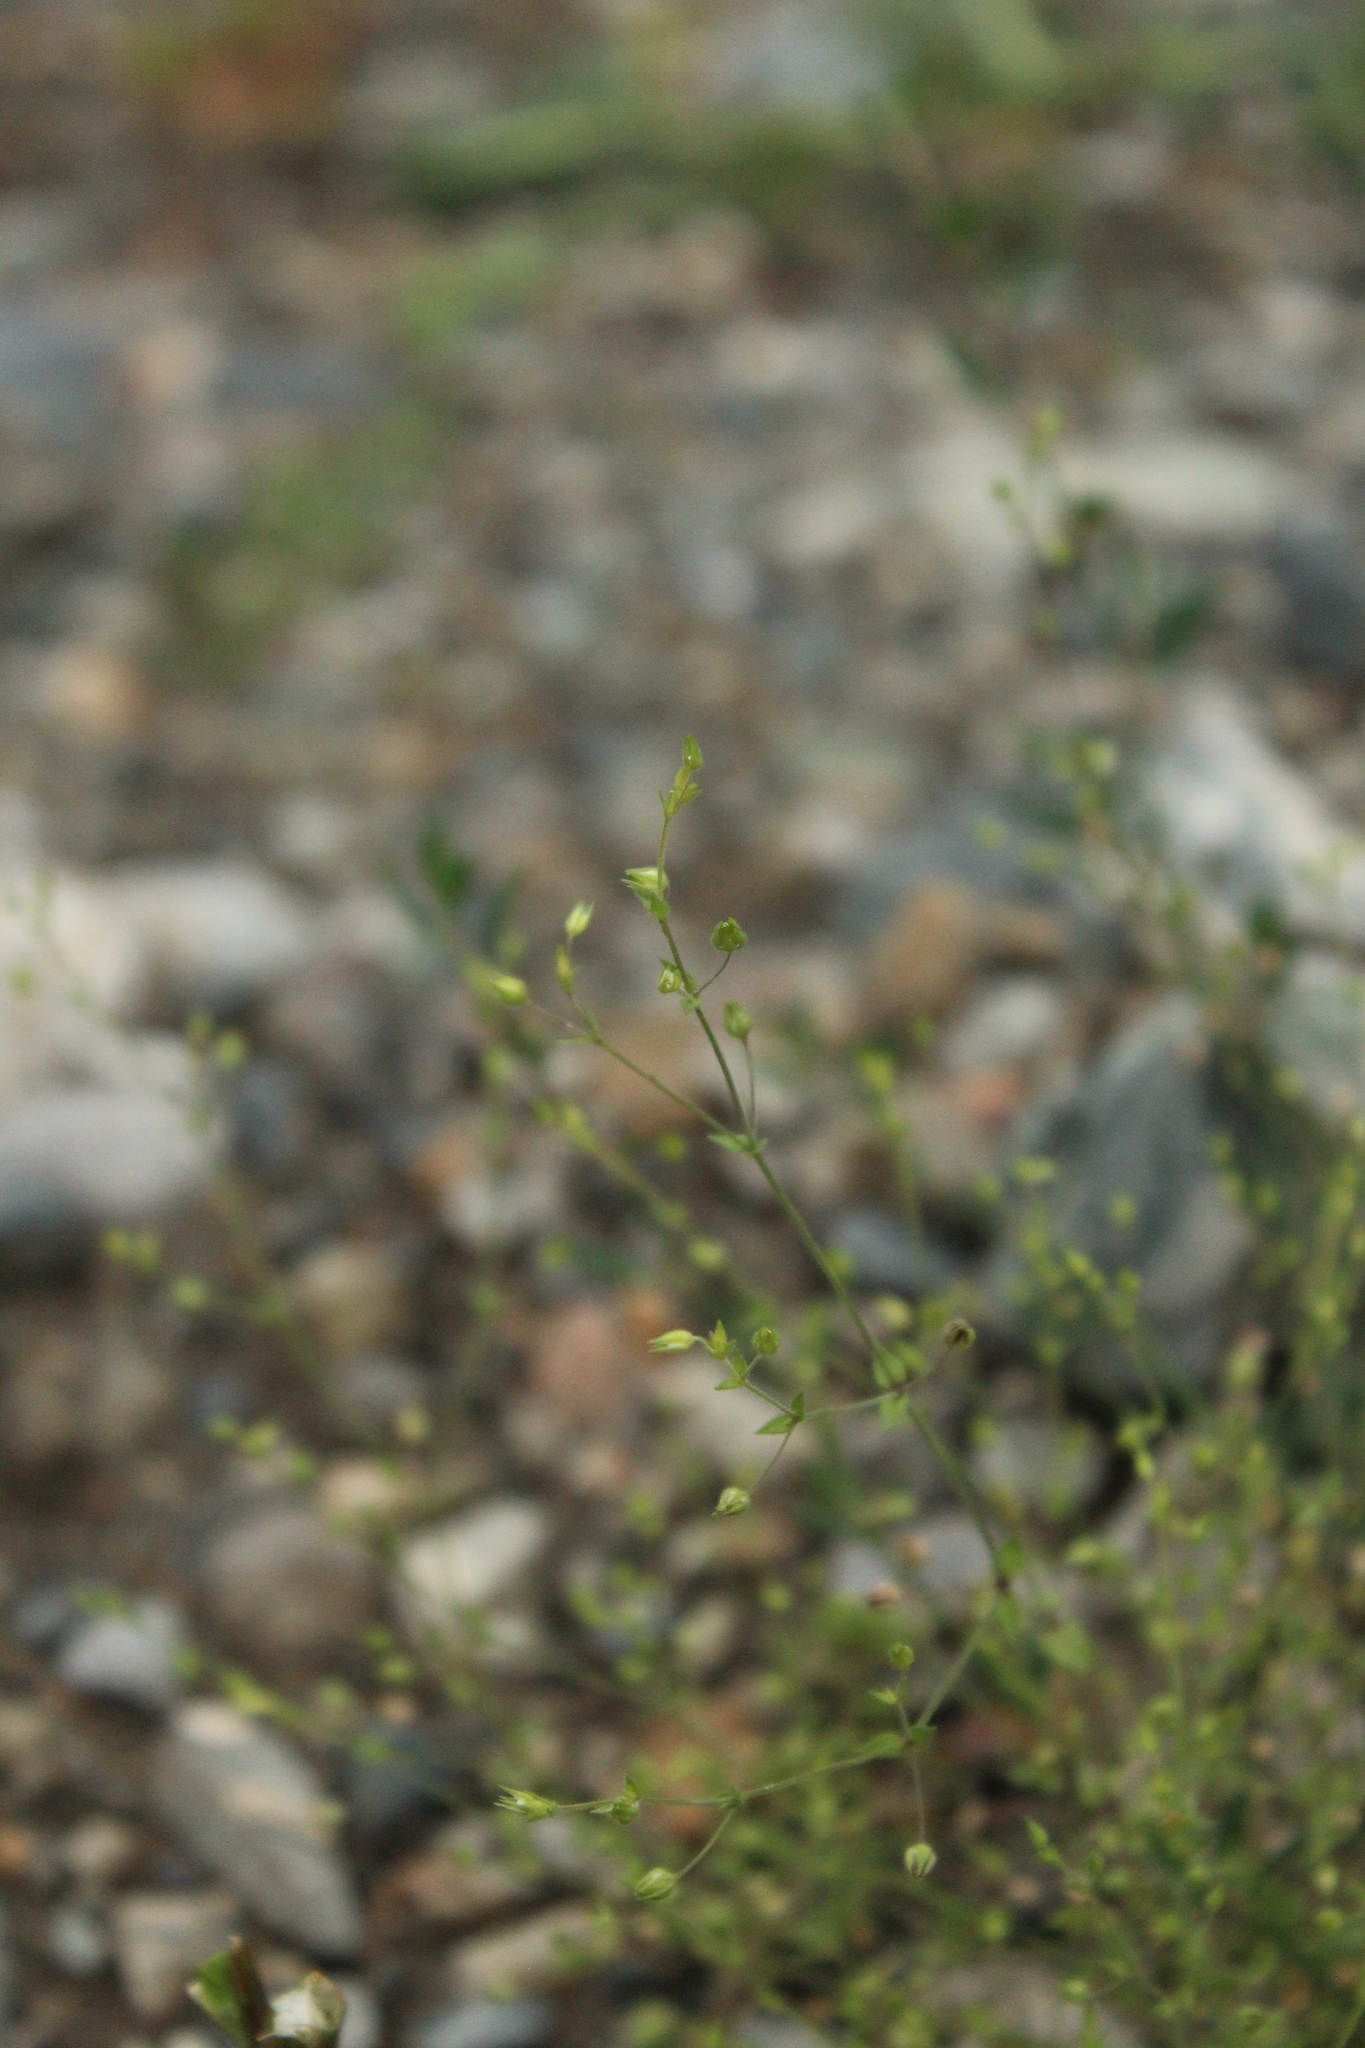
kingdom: Plantae
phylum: Tracheophyta
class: Magnoliopsida
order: Caryophyllales
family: Caryophyllaceae
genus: Arenaria
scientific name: Arenaria serpyllifolia
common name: Thyme-leaved sandwort
